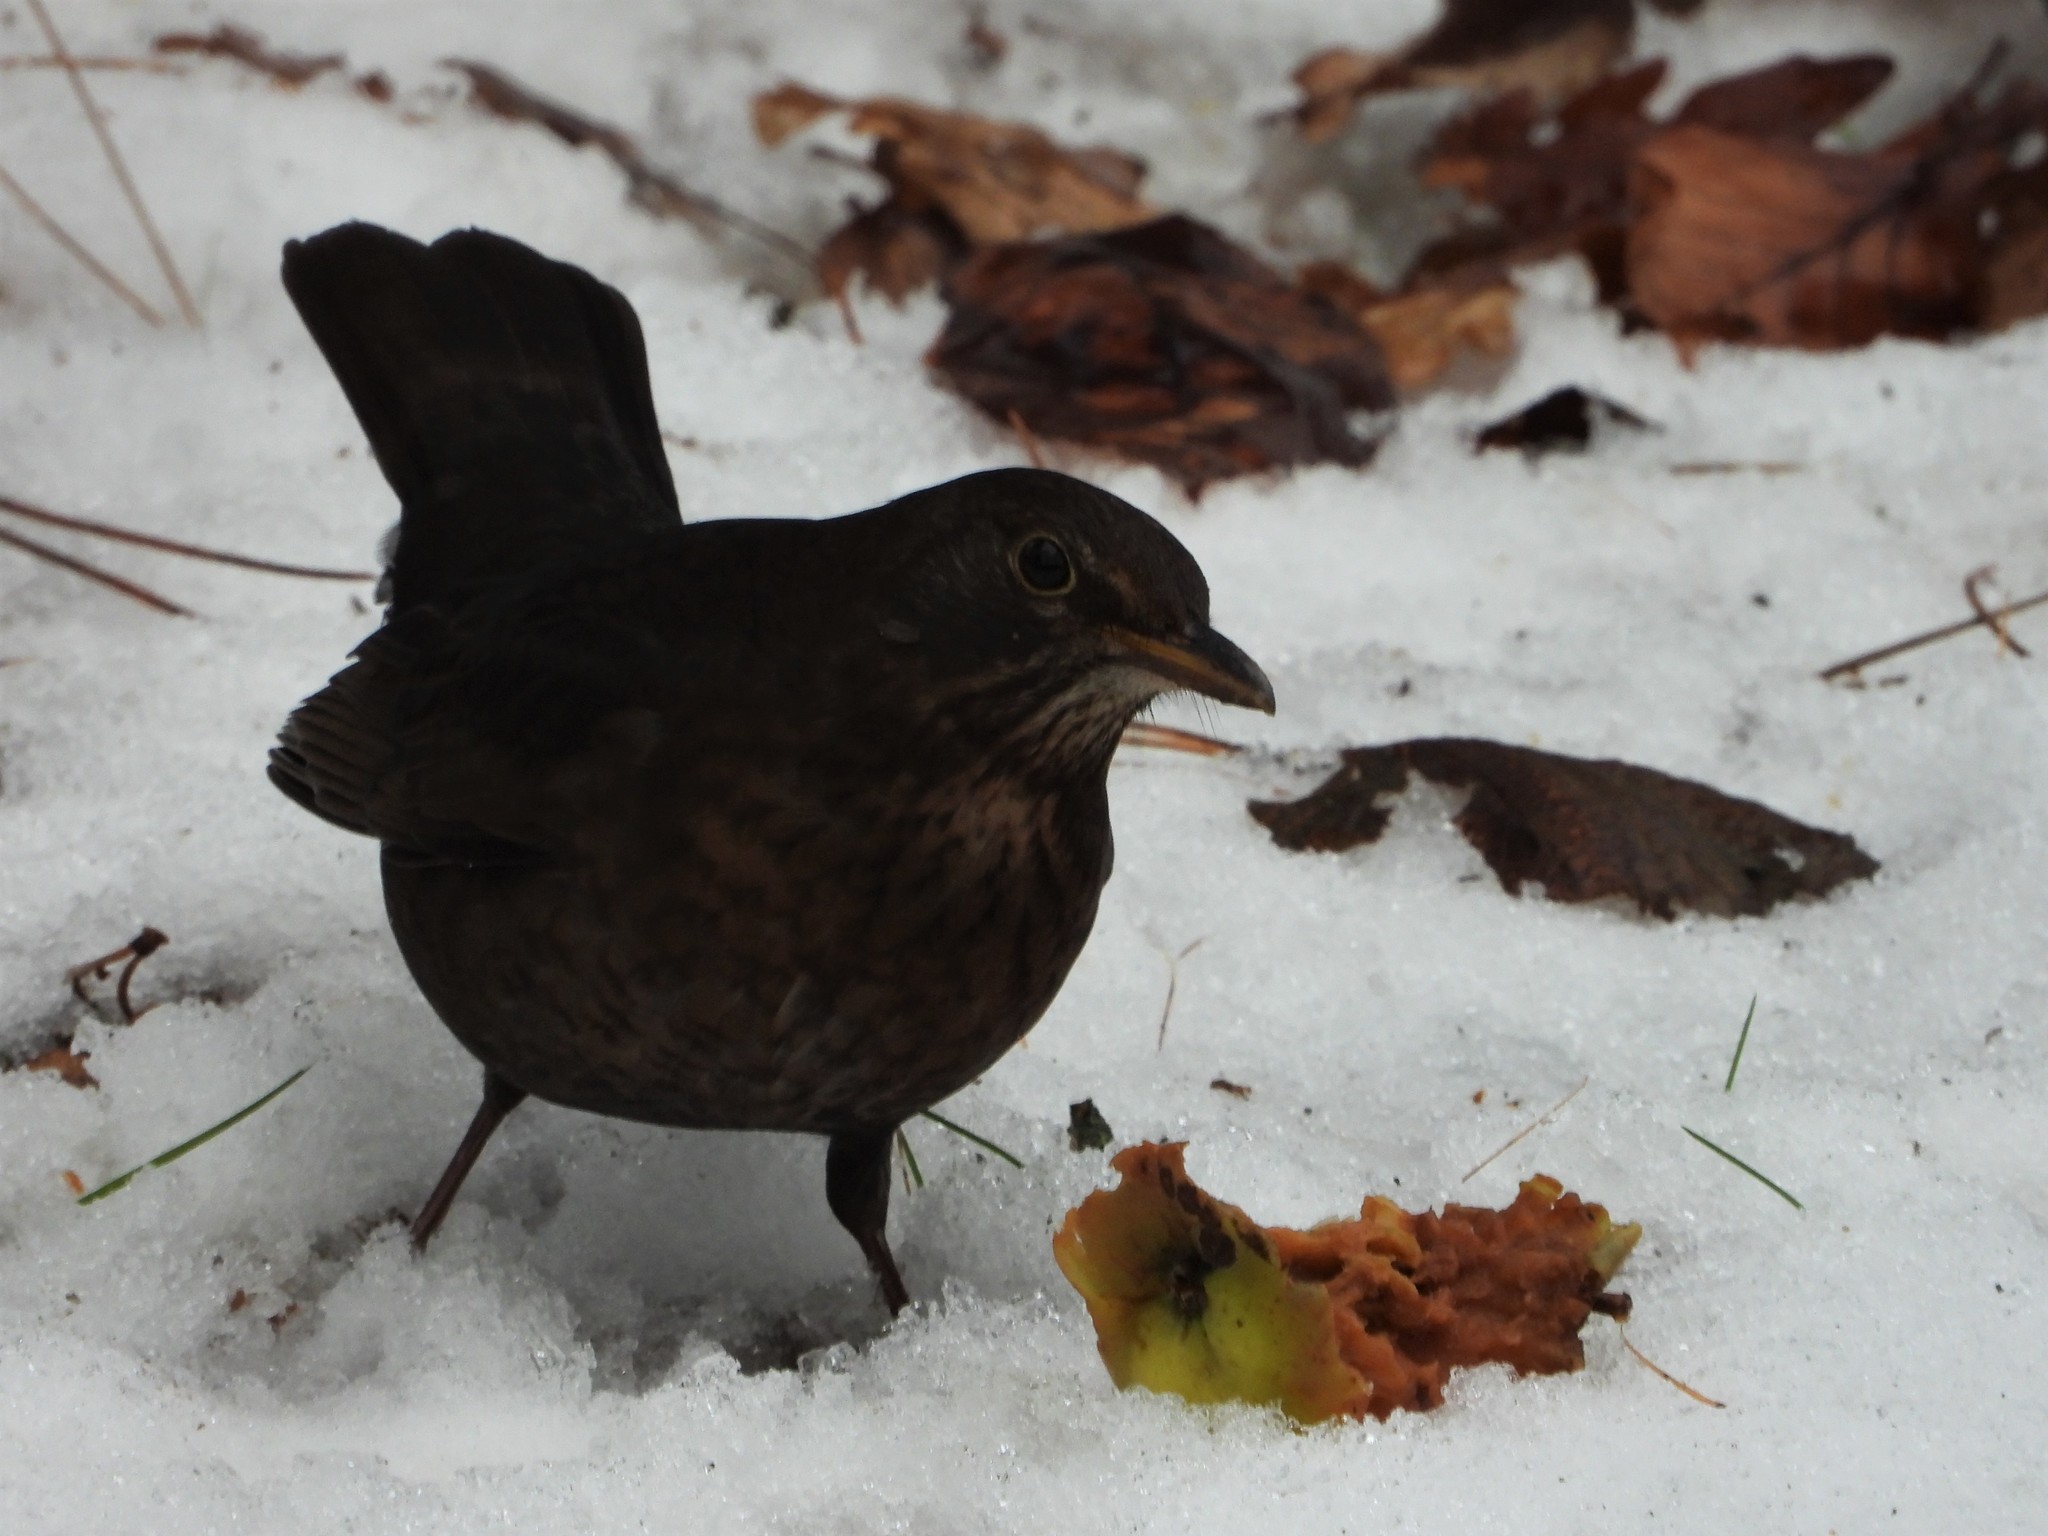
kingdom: Animalia
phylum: Chordata
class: Aves
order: Passeriformes
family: Turdidae
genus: Turdus
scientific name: Turdus merula
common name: Common blackbird
